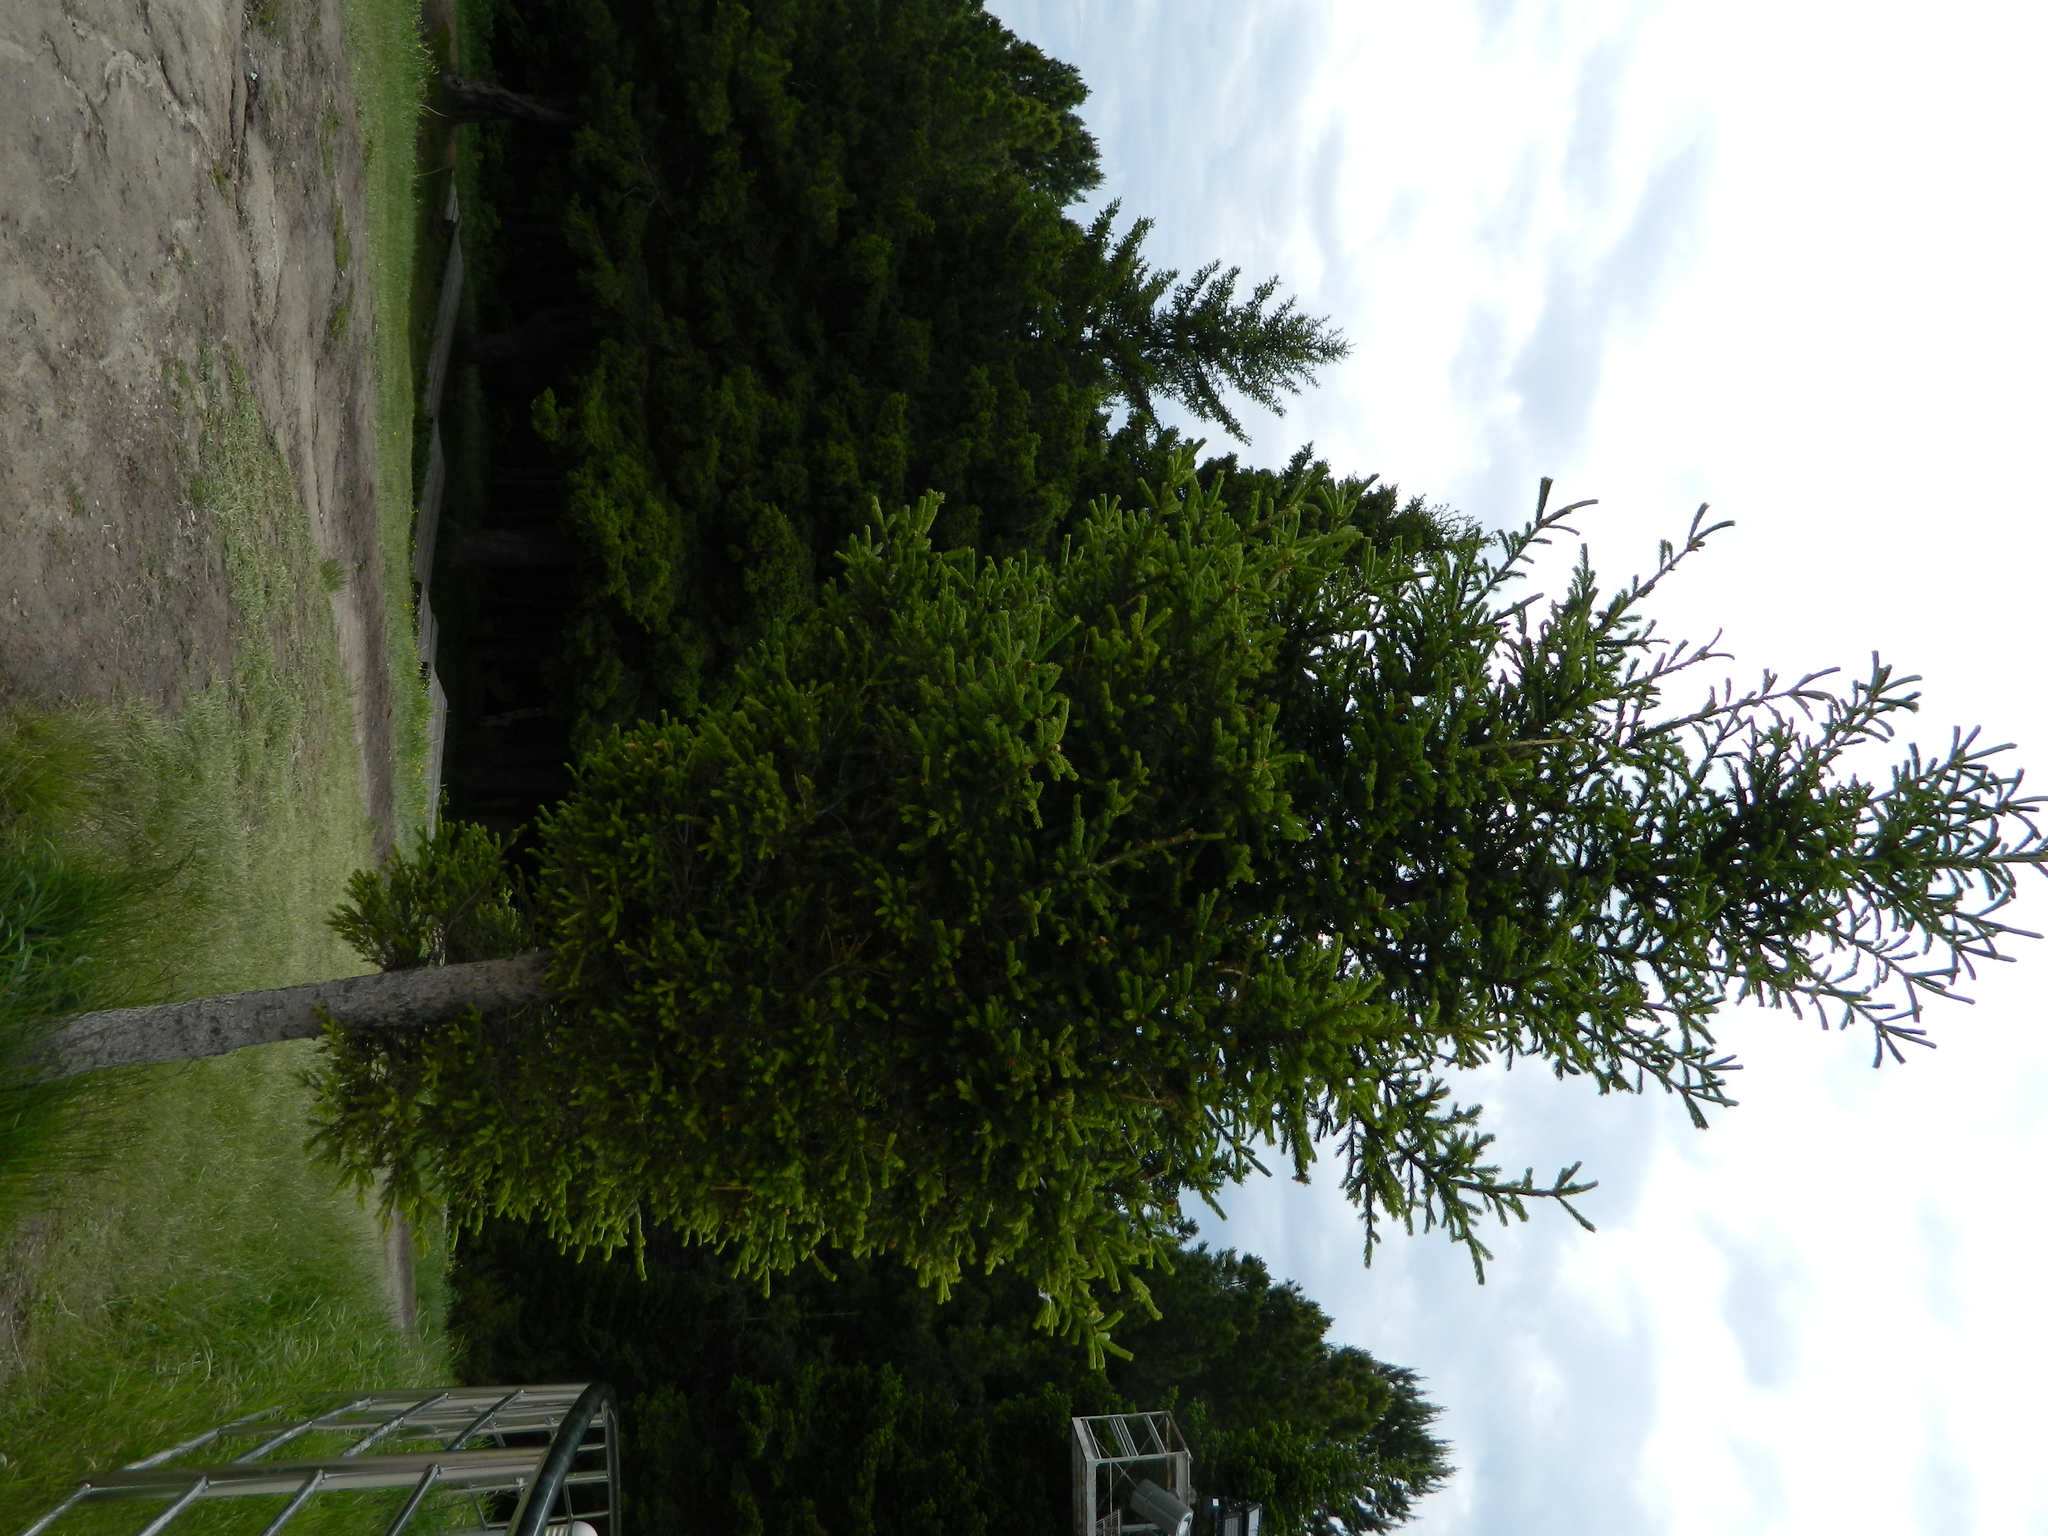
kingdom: Plantae
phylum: Tracheophyta
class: Pinopsida
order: Pinales
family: Pinaceae
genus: Picea
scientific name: Picea obovata
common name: Siberian spruce
